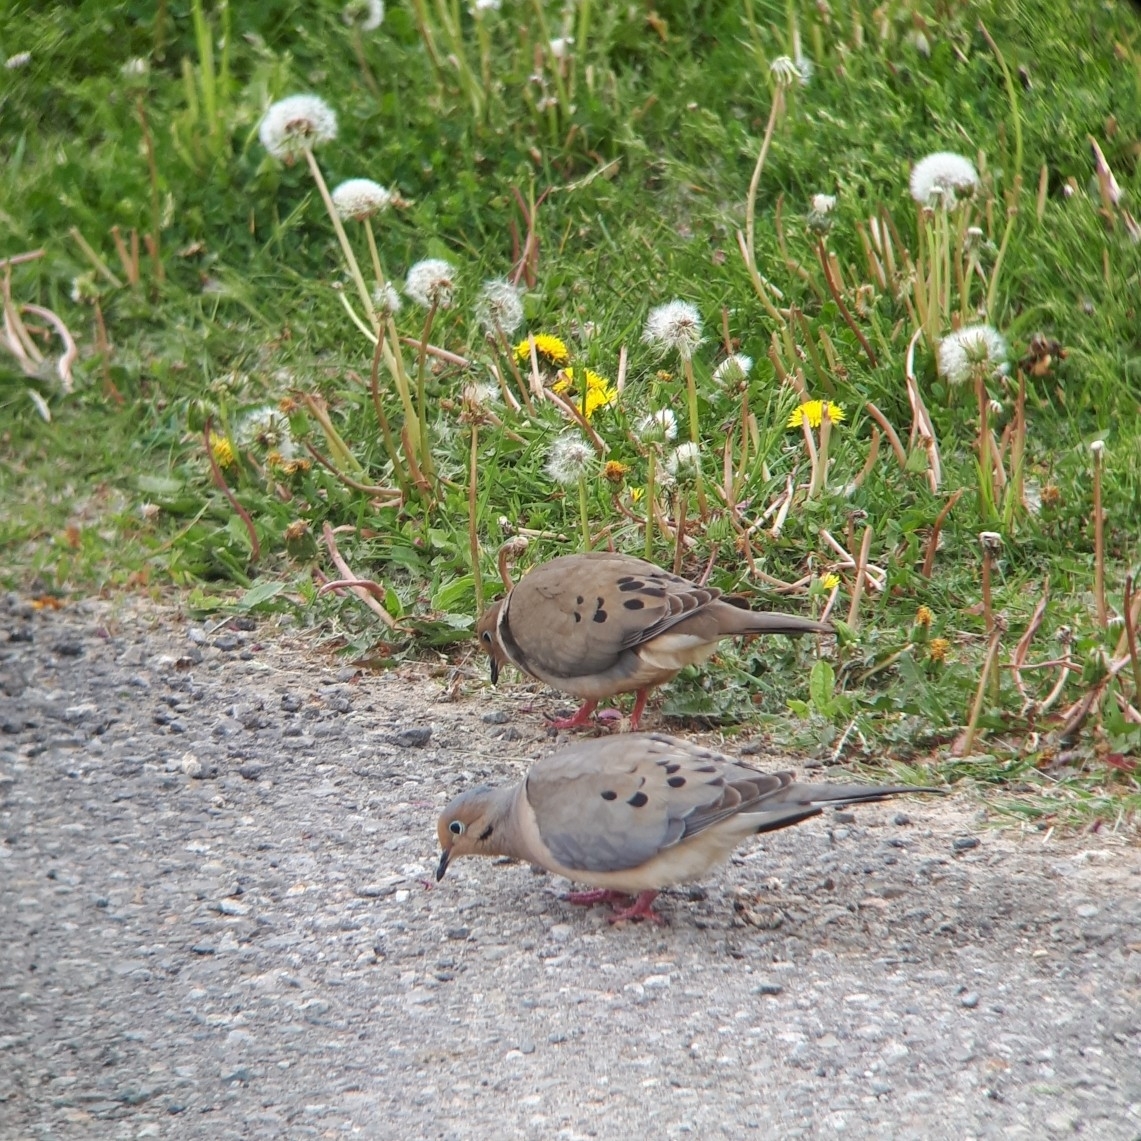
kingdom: Animalia
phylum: Chordata
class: Aves
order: Columbiformes
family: Columbidae
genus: Zenaida
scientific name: Zenaida macroura
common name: Mourning dove
